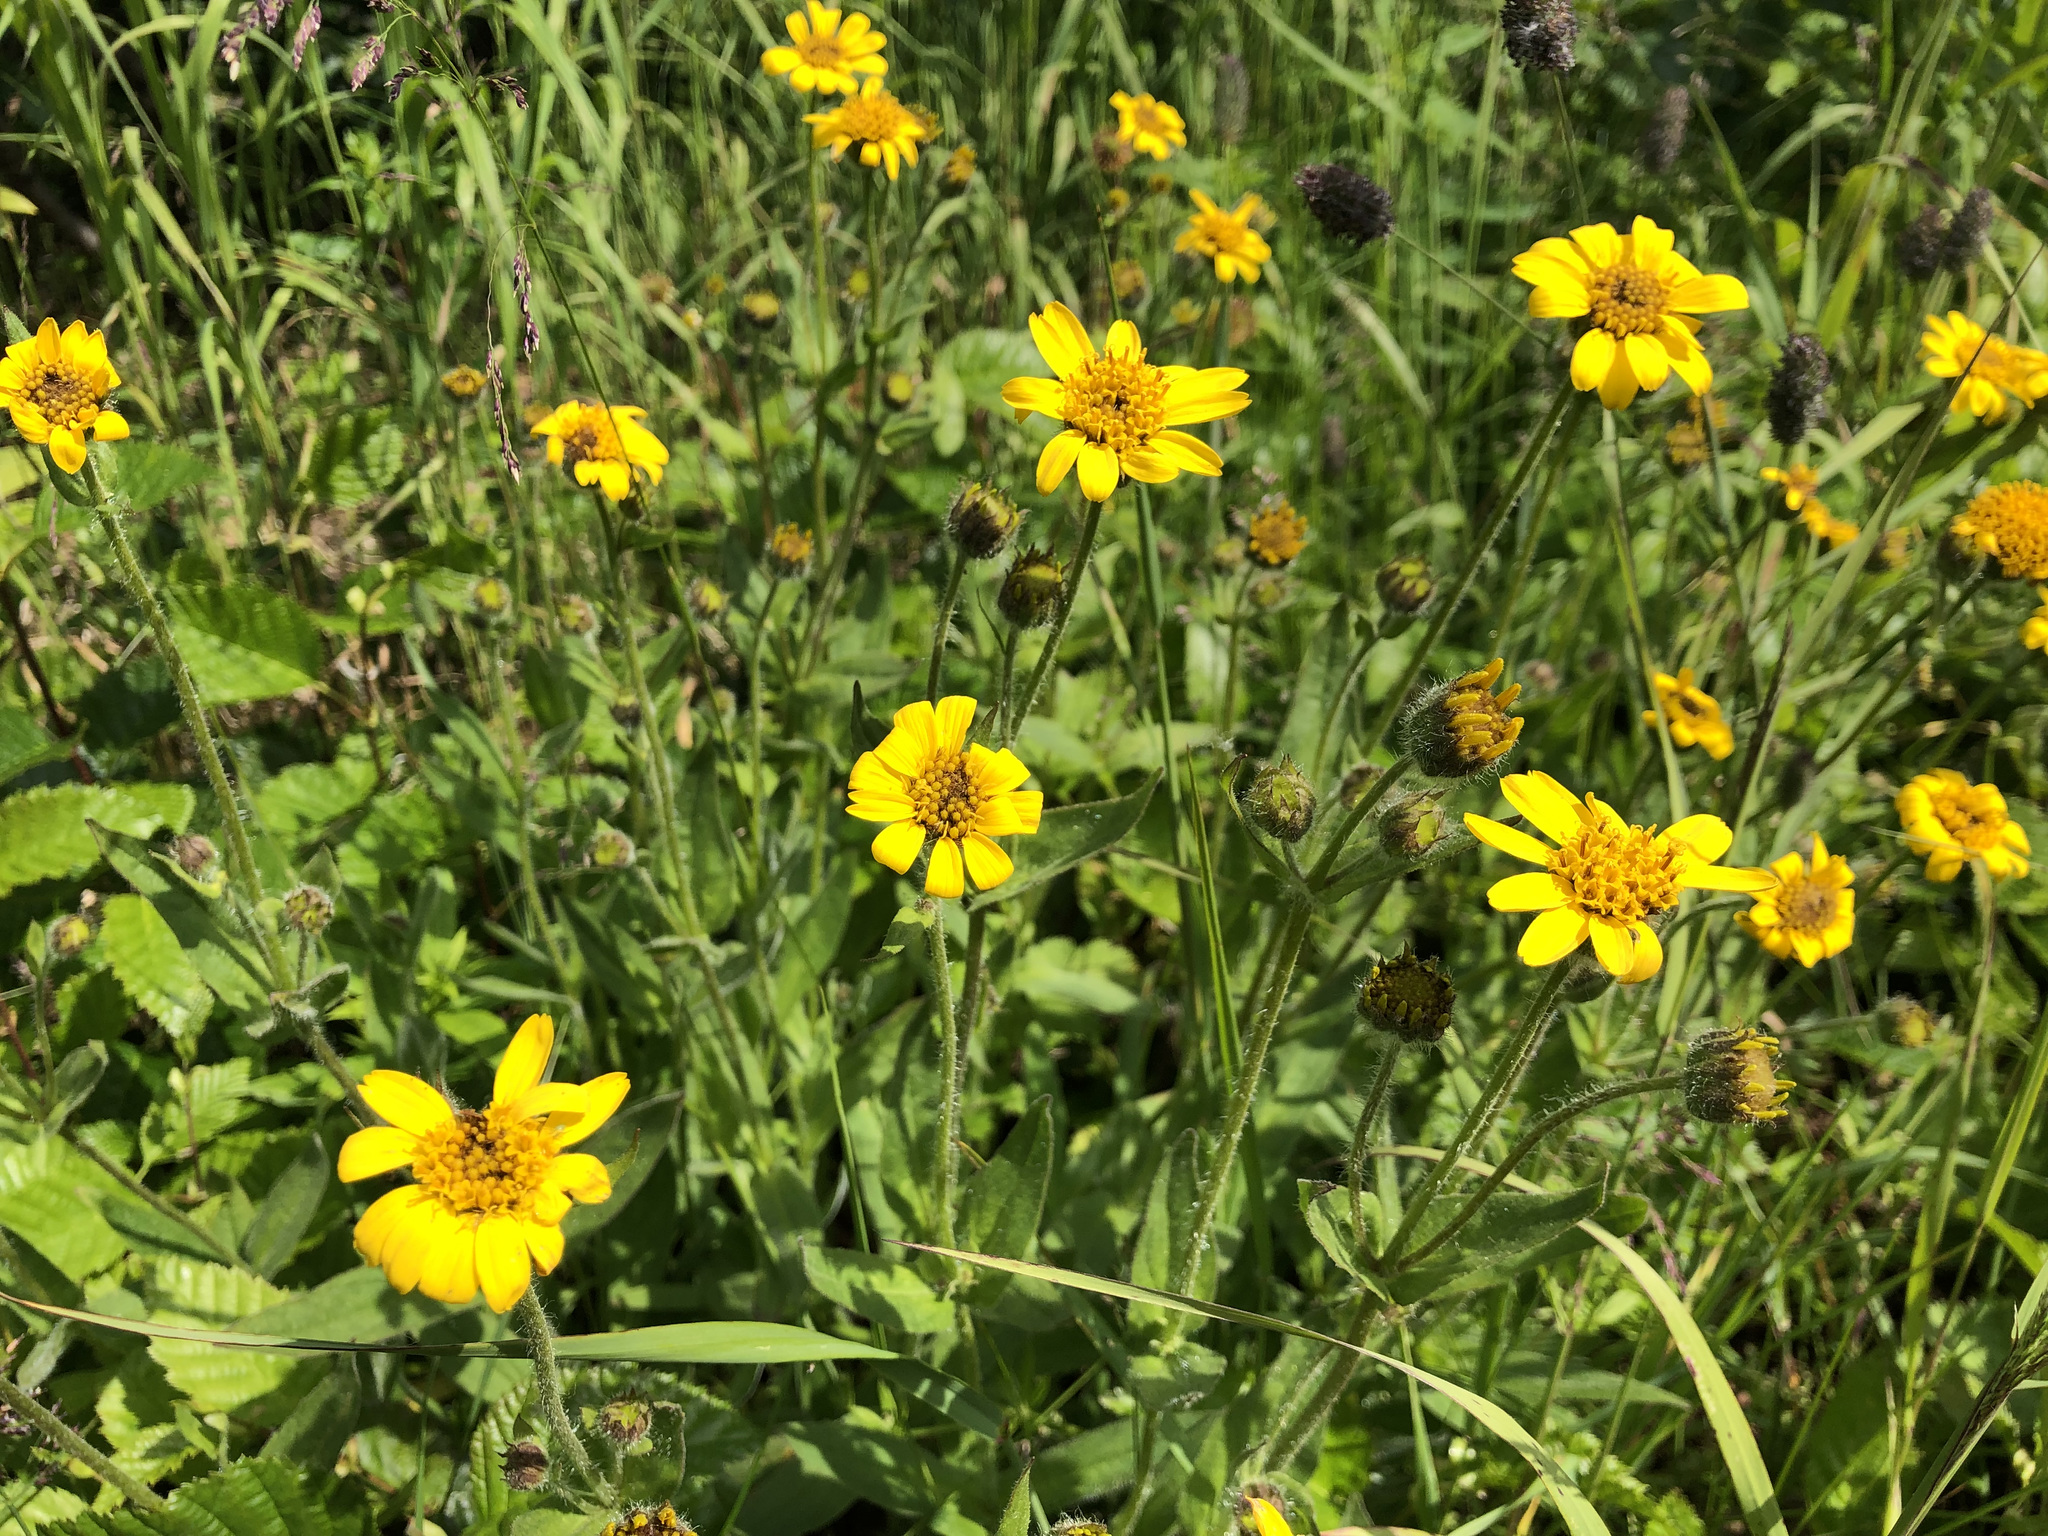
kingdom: Plantae
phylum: Tracheophyta
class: Magnoliopsida
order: Asterales
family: Asteraceae
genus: Arnica
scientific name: Arnica latifolia
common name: Arnica
